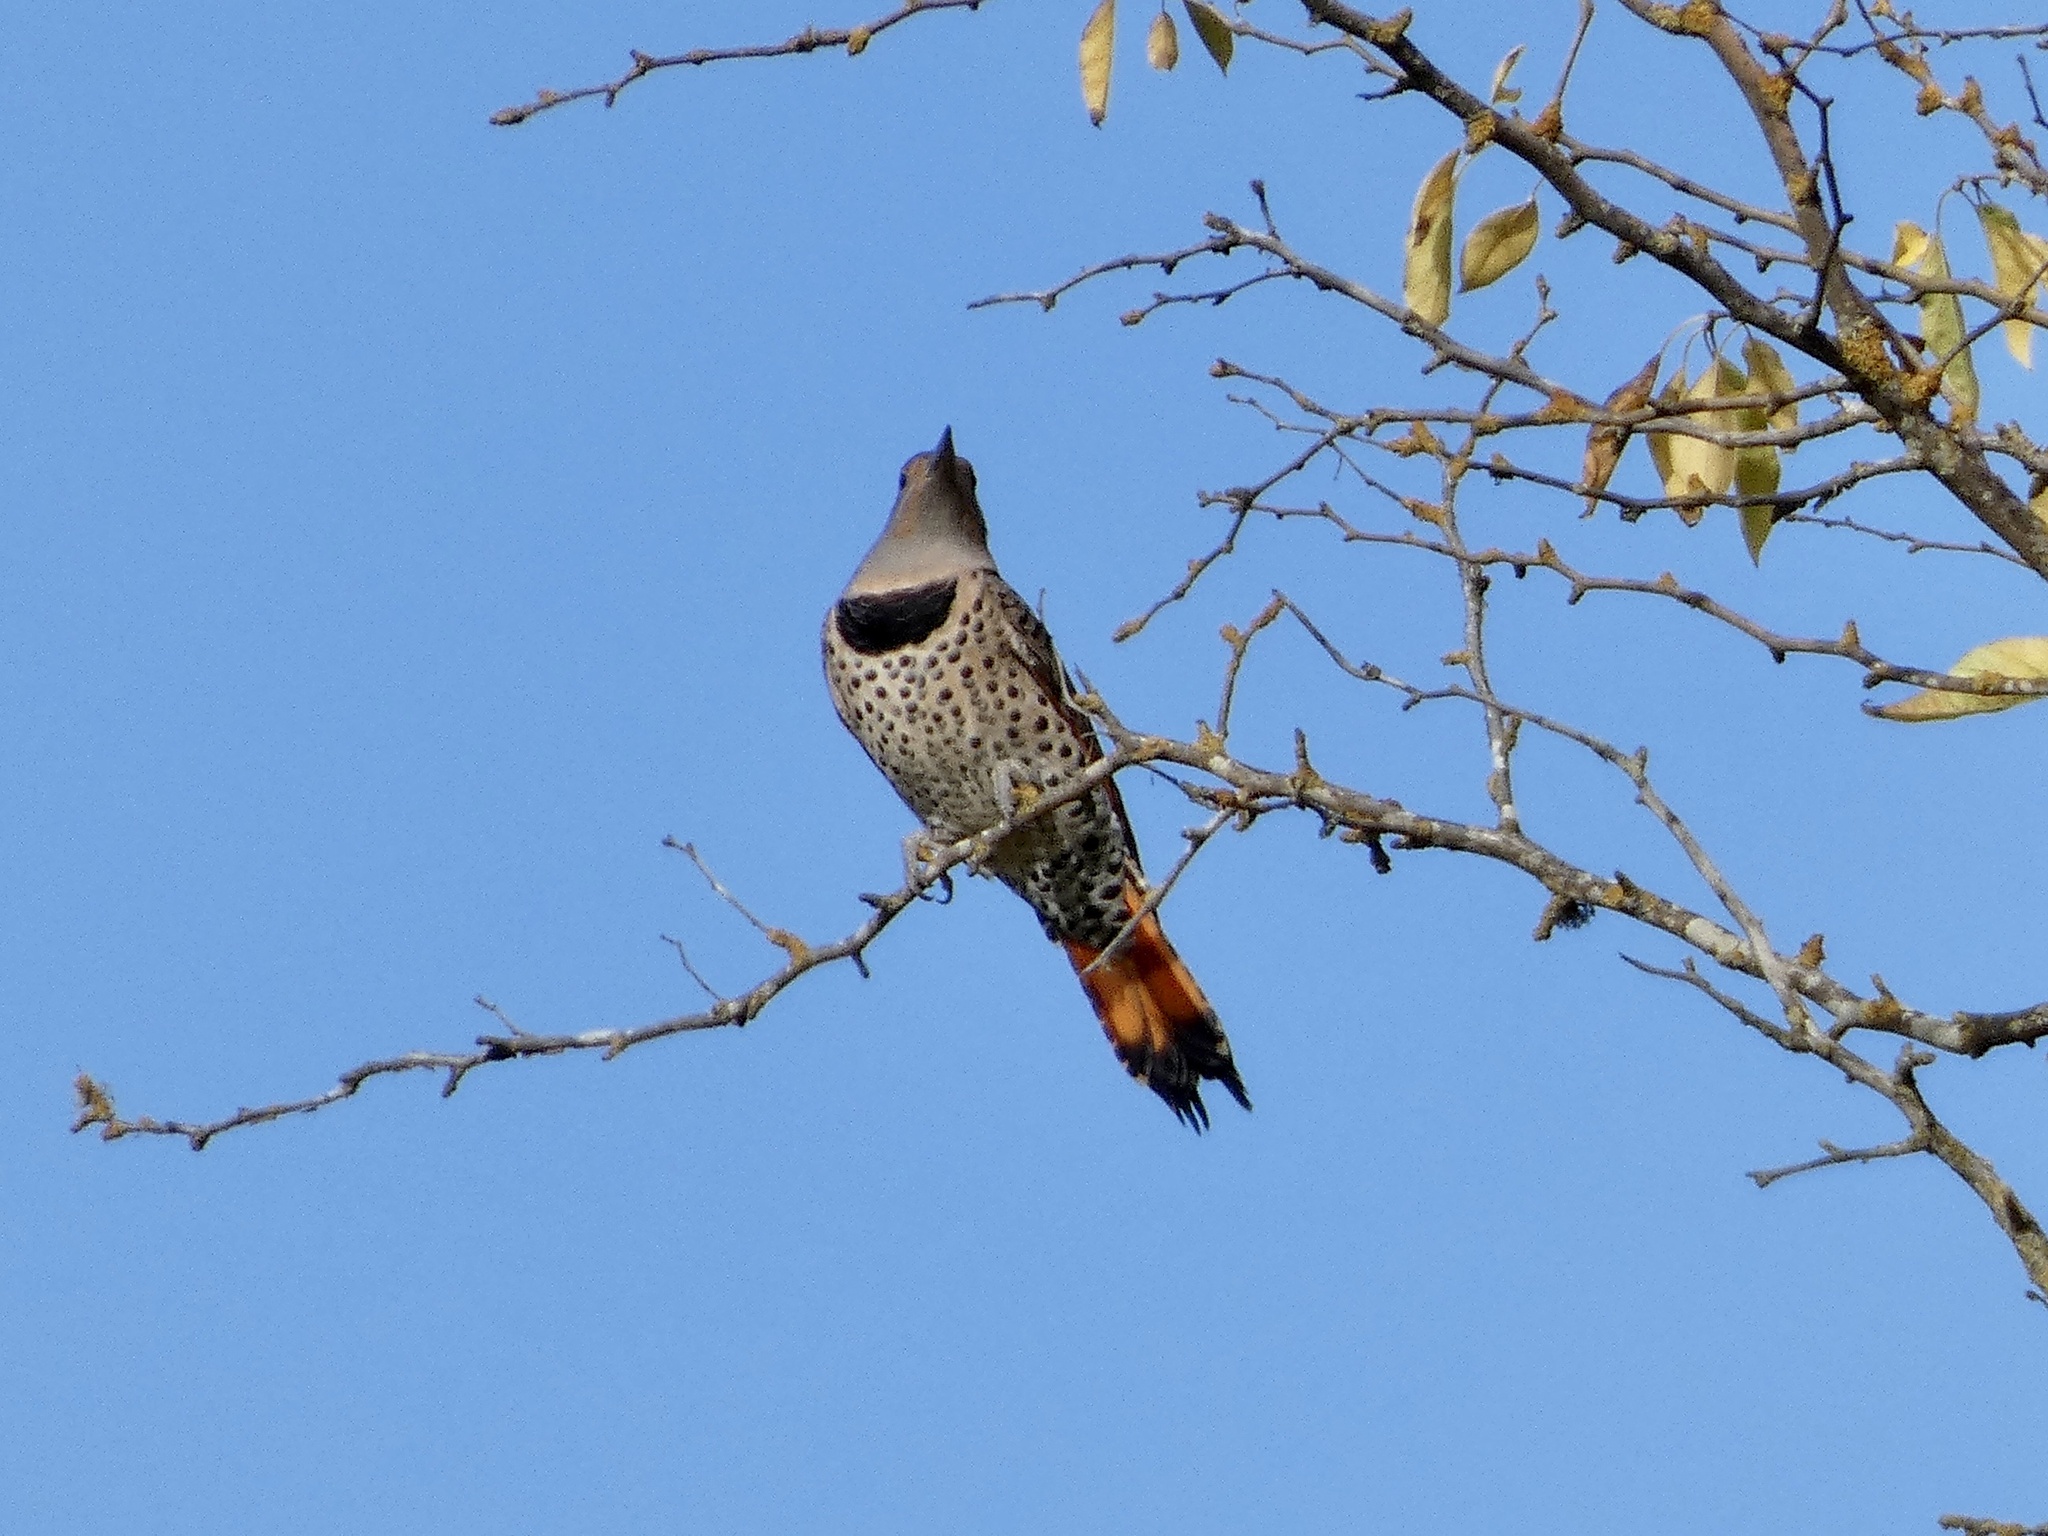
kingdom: Animalia
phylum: Chordata
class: Aves
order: Piciformes
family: Picidae
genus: Colaptes
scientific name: Colaptes auratus
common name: Northern flicker
